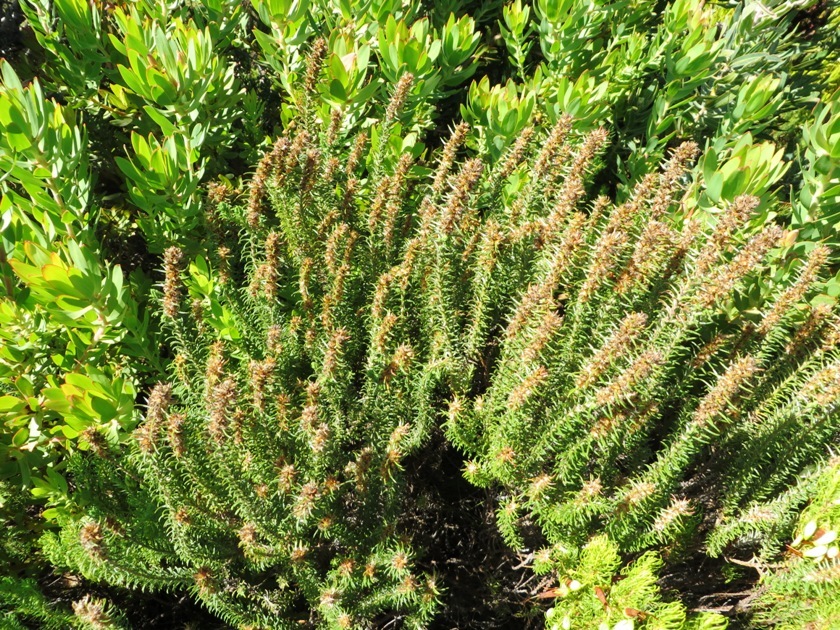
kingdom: Plantae
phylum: Tracheophyta
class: Magnoliopsida
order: Asterales
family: Asteraceae
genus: Myrovernix
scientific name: Myrovernix glandulosus
